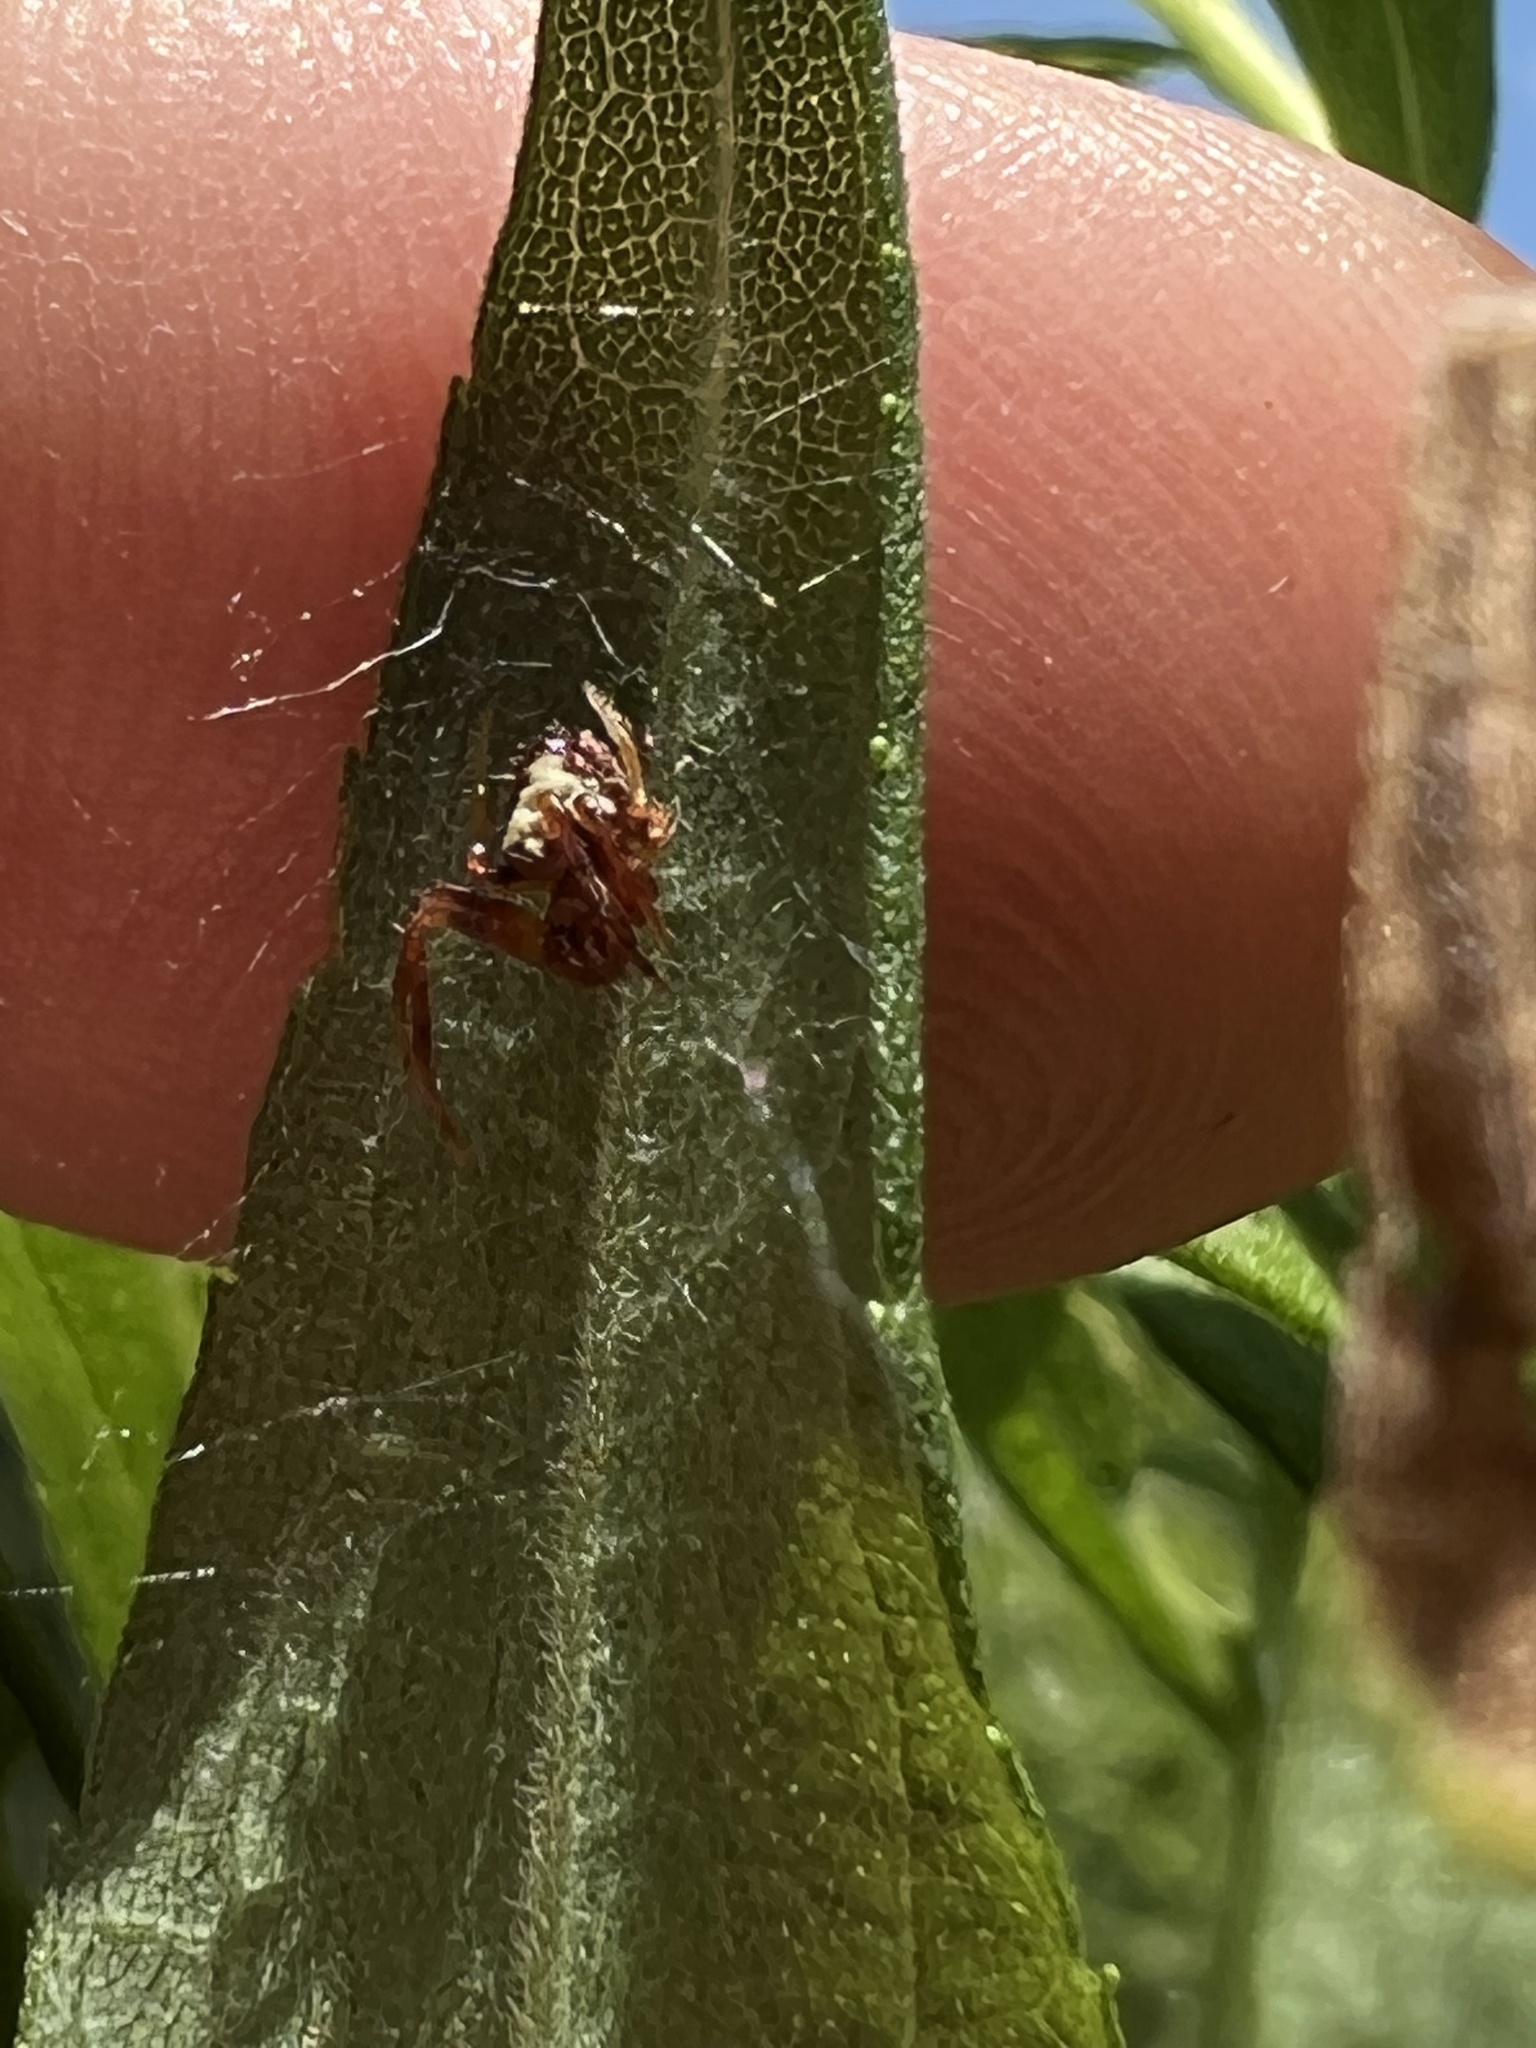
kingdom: Animalia
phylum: Arthropoda
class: Arachnida
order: Araneae
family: Araneidae
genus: Verrucosa
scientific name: Verrucosa arenata
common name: Orb weavers
